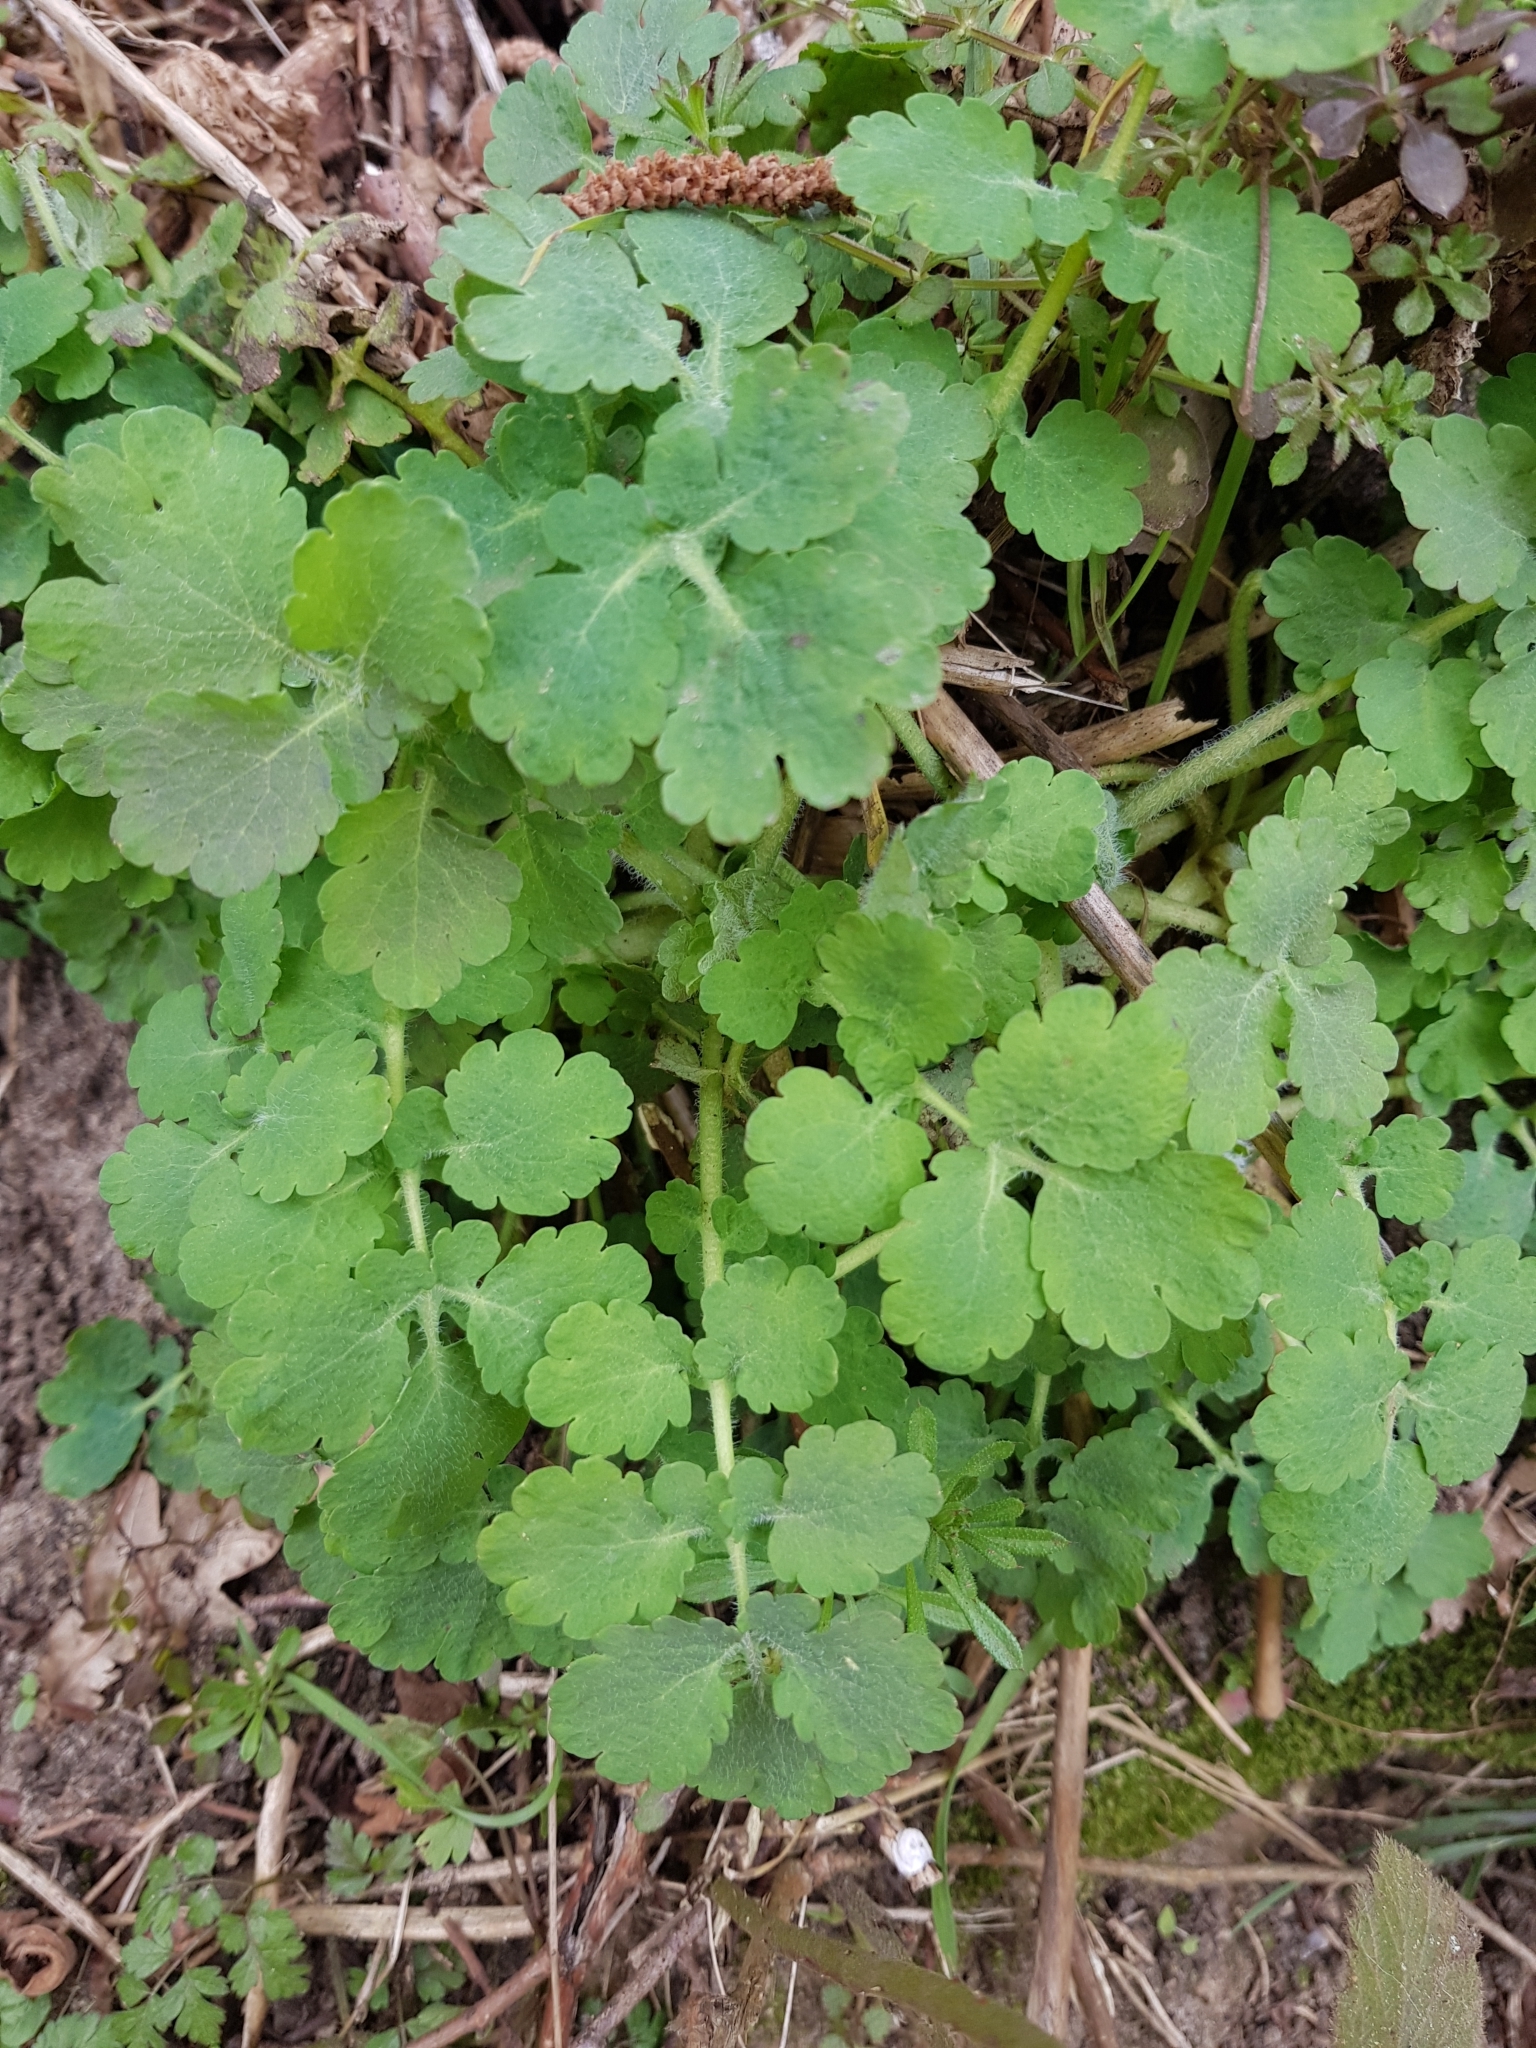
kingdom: Plantae
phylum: Tracheophyta
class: Magnoliopsida
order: Ranunculales
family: Papaveraceae
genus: Chelidonium
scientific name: Chelidonium majus
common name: Greater celandine
